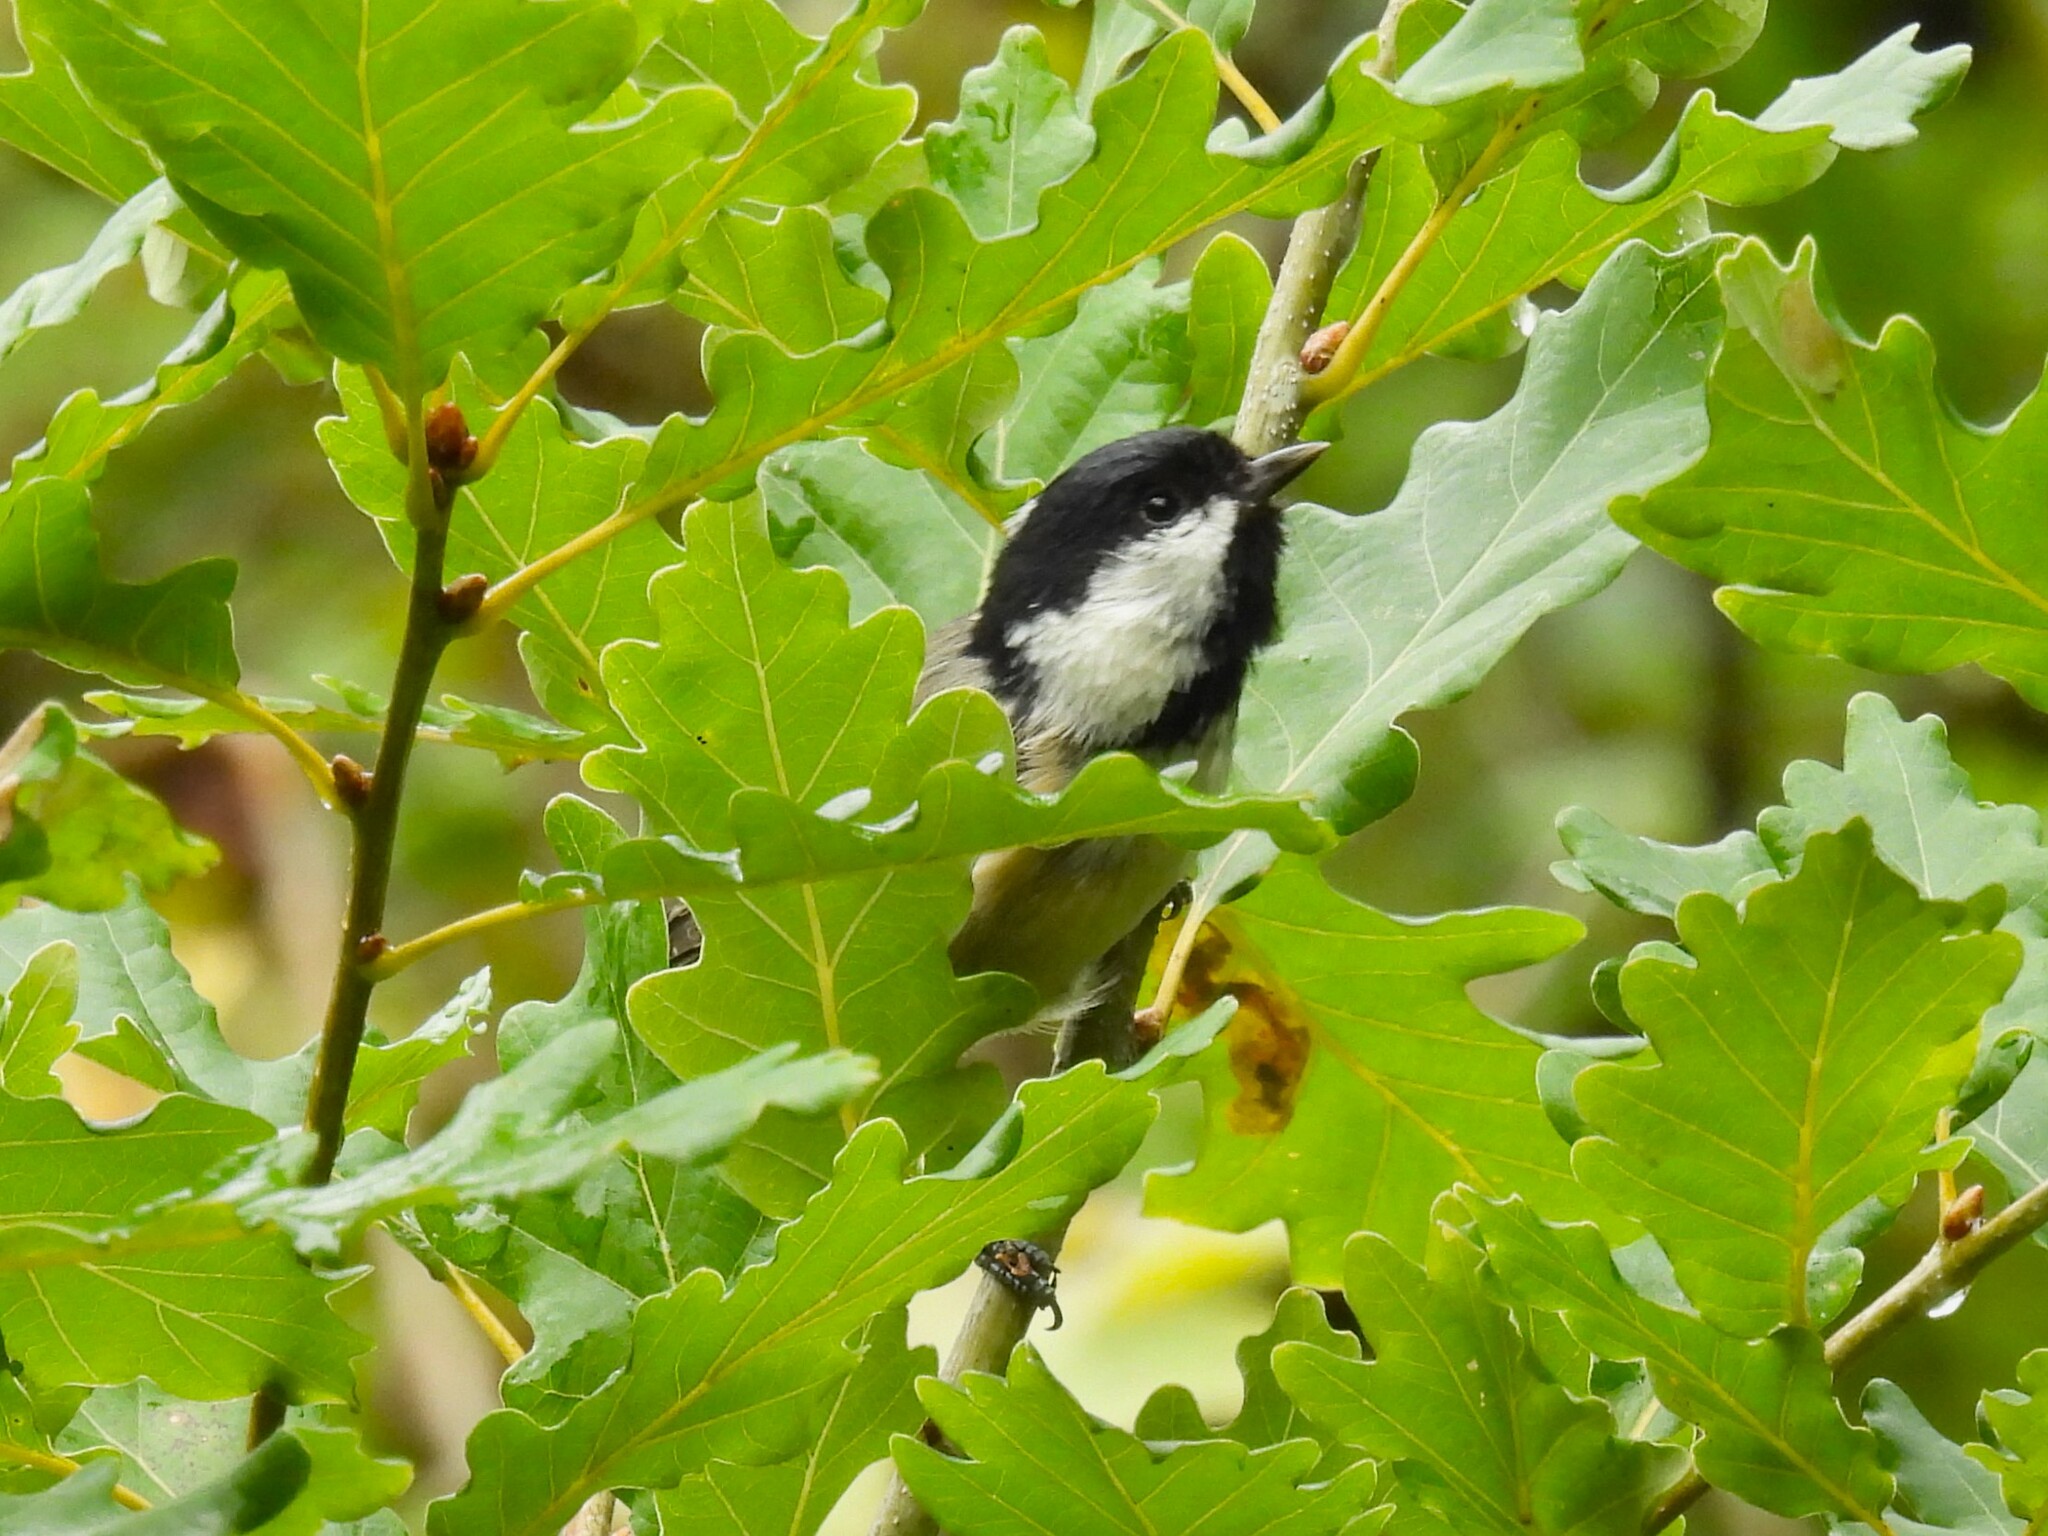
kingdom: Animalia
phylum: Chordata
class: Aves
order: Passeriformes
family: Paridae
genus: Periparus
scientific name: Periparus ater
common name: Coal tit
